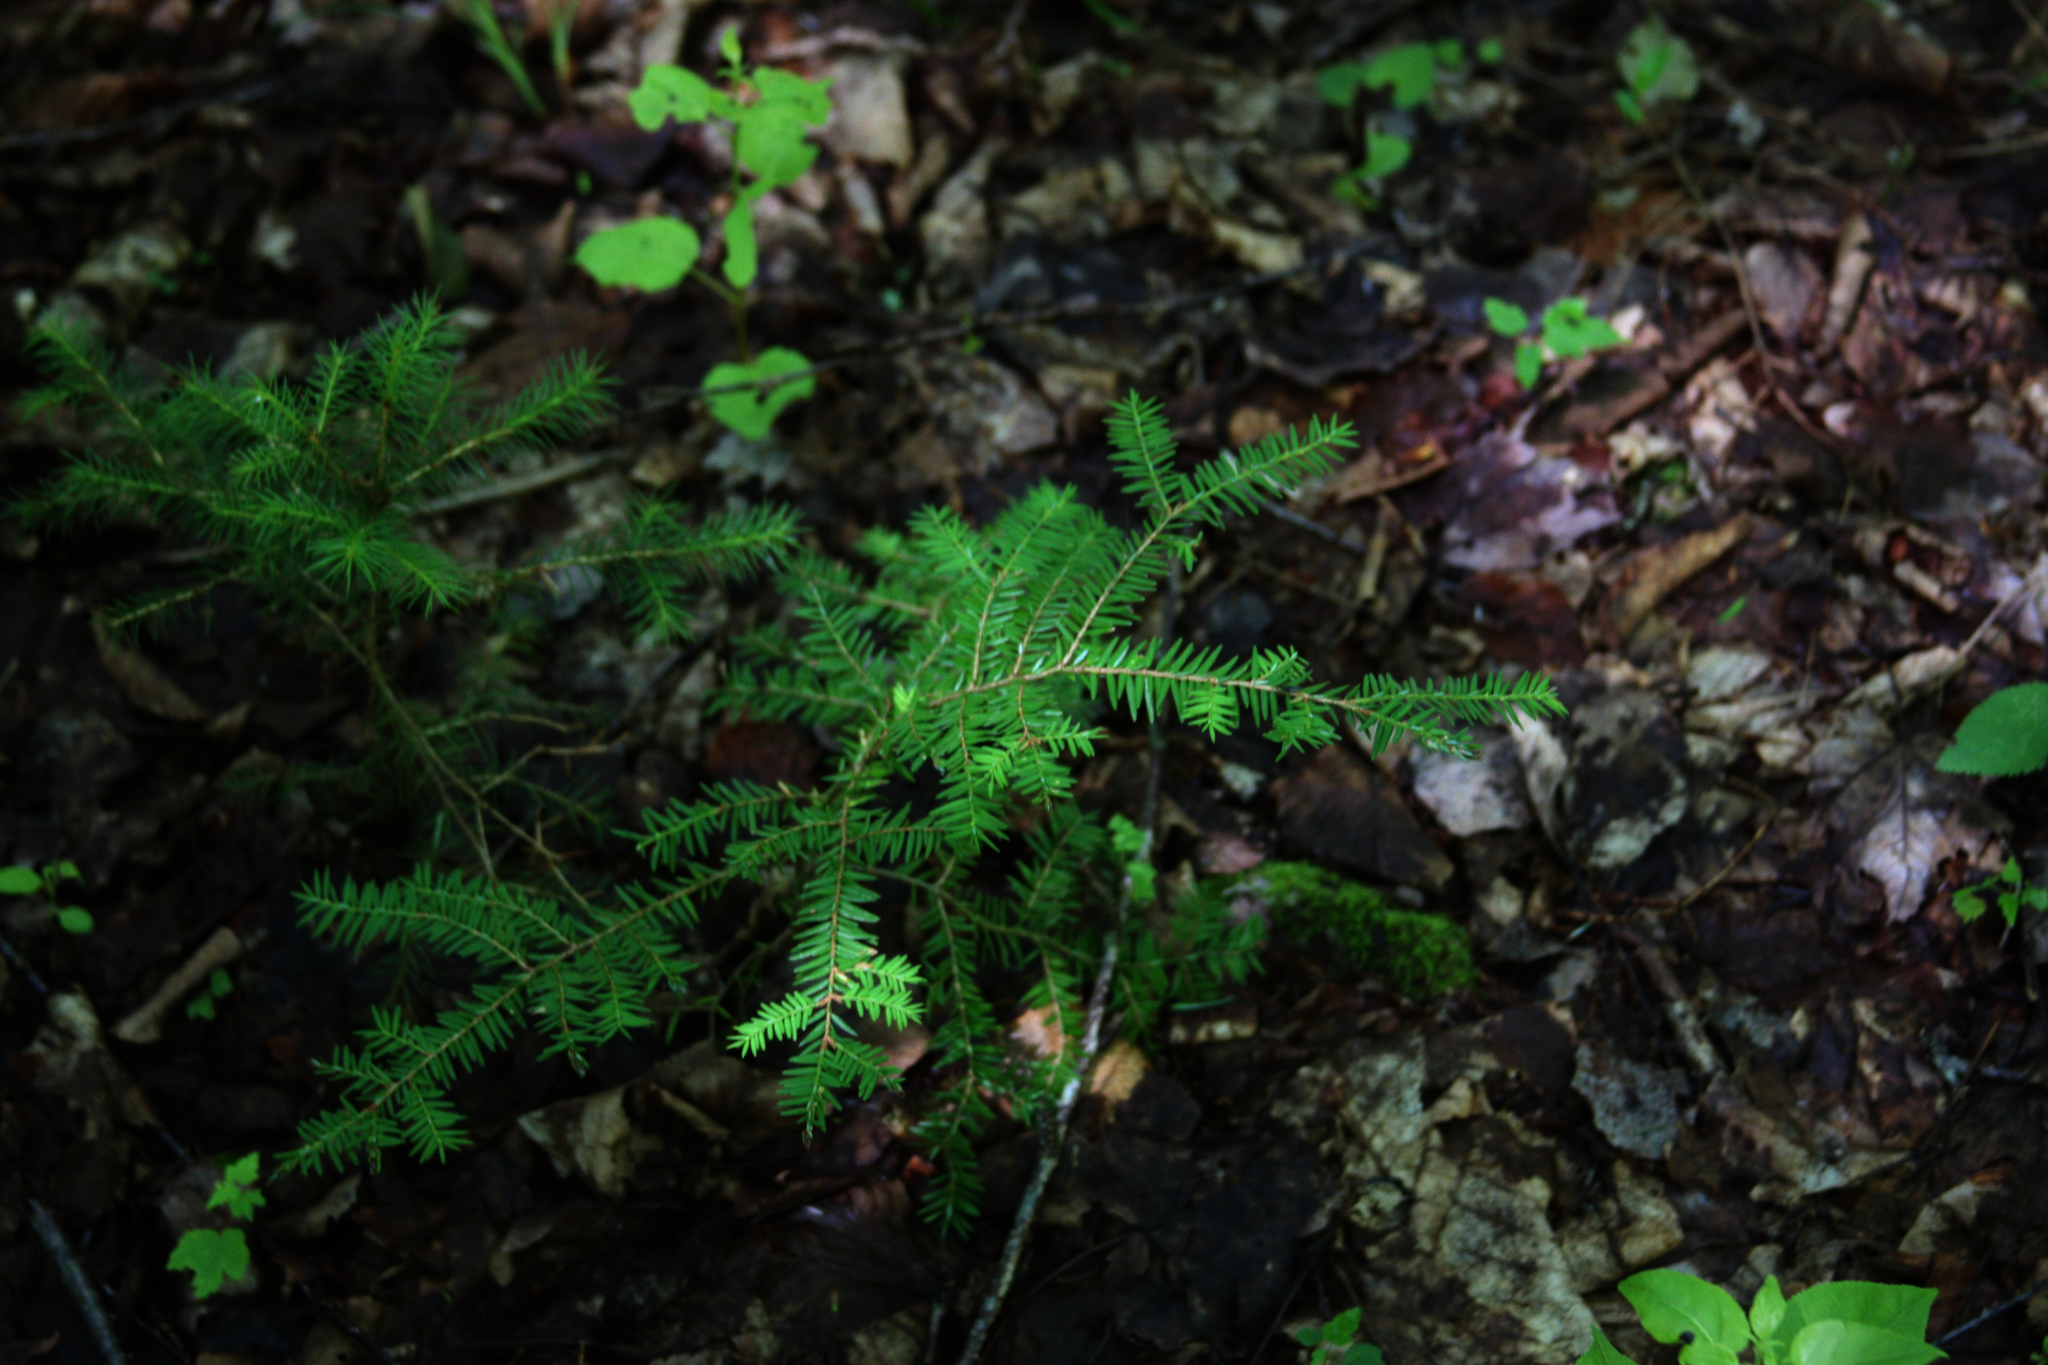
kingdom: Plantae
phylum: Tracheophyta
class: Pinopsida
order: Pinales
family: Pinaceae
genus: Tsuga
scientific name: Tsuga canadensis
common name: Eastern hemlock
